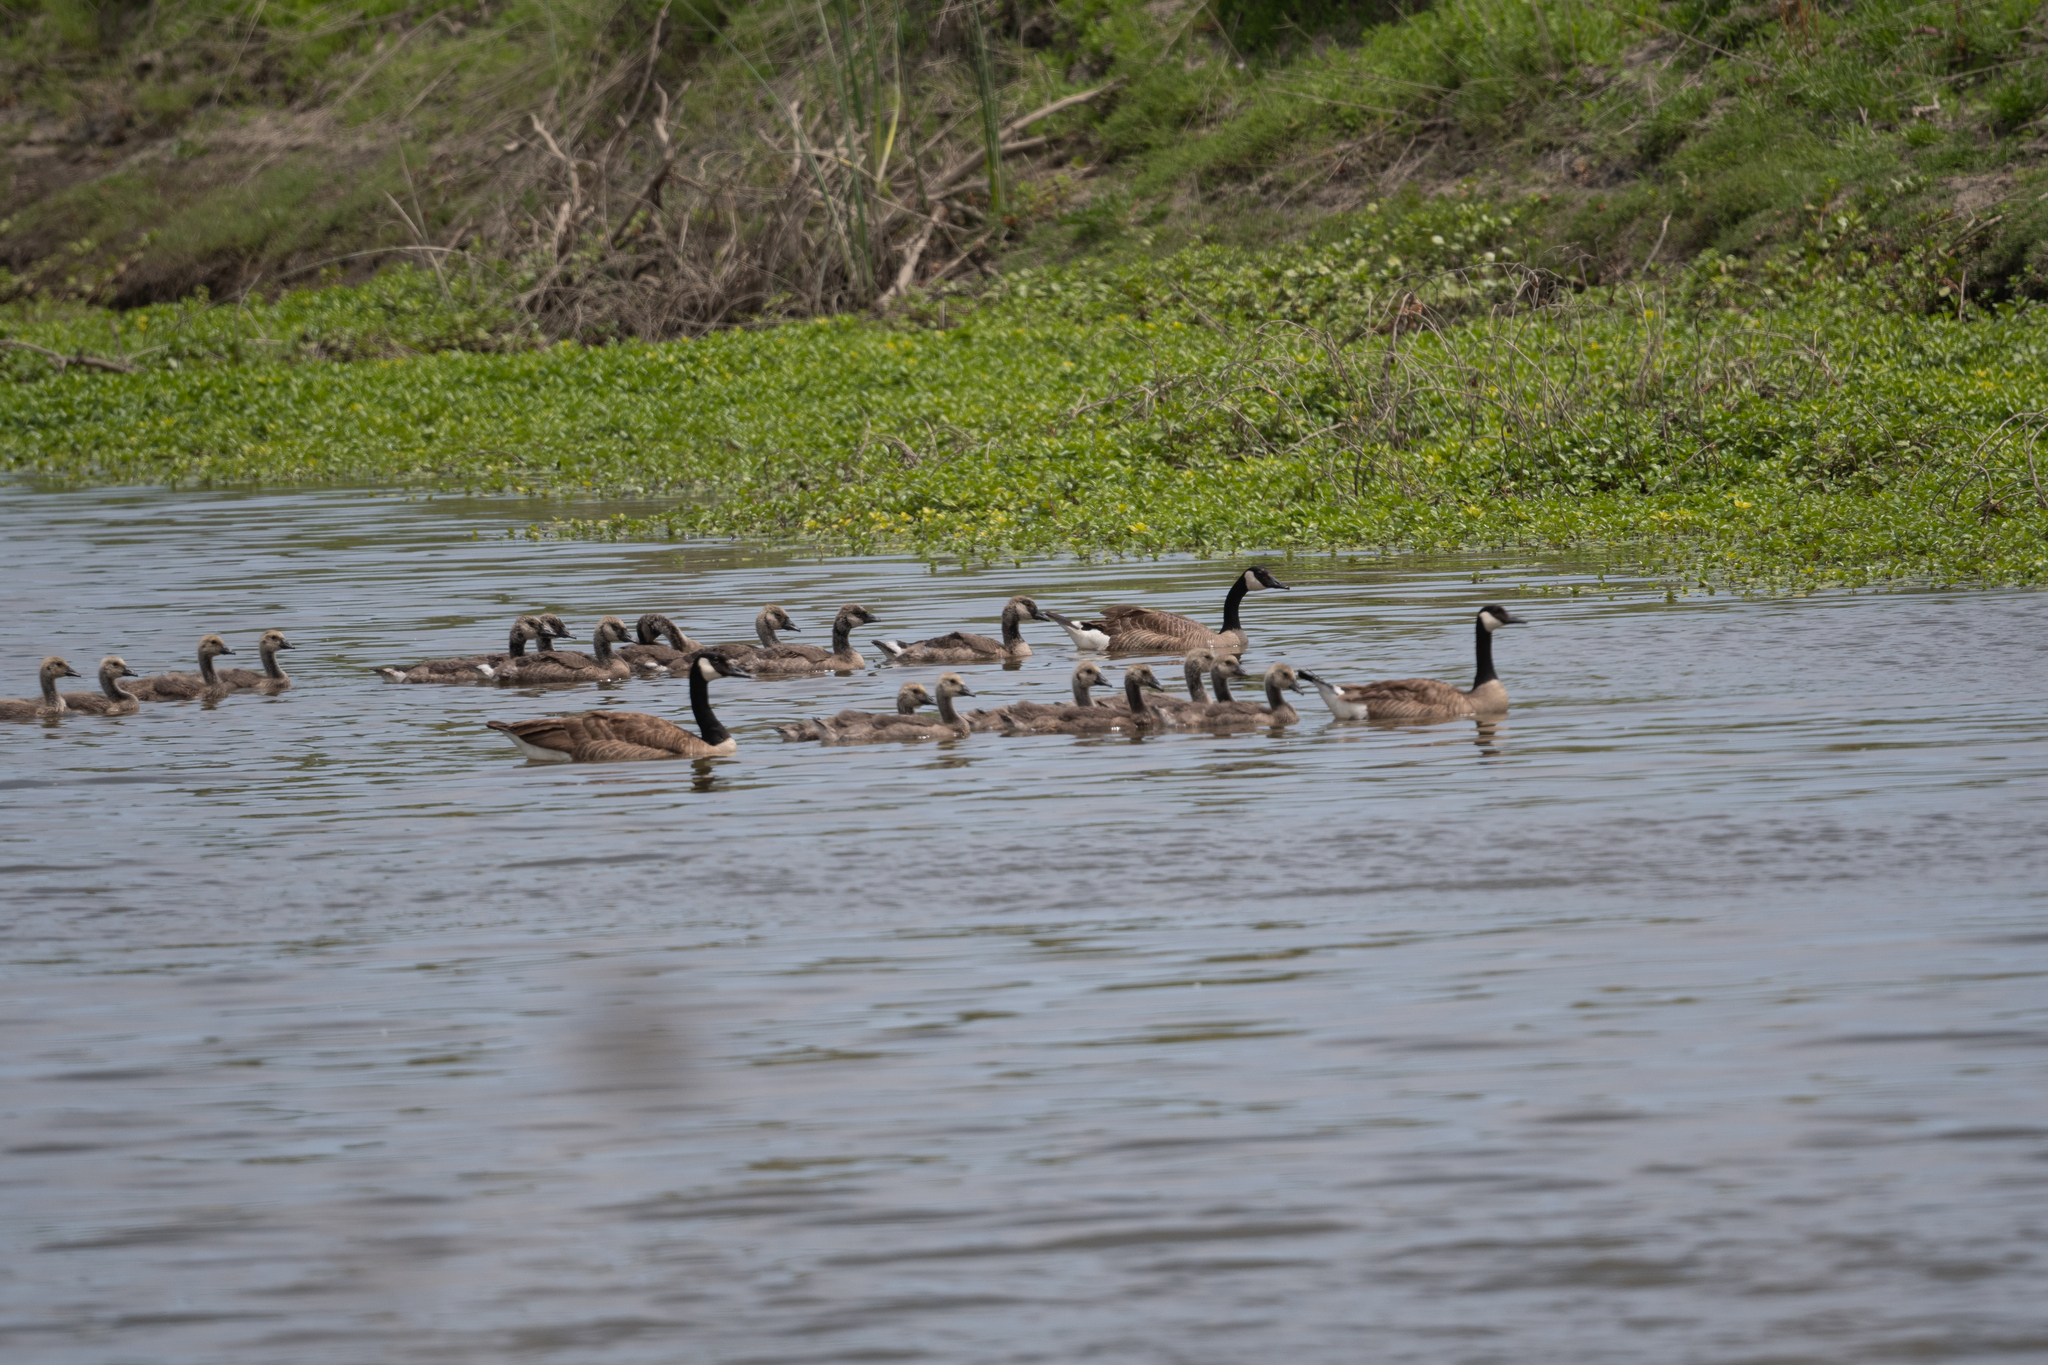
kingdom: Animalia
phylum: Chordata
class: Aves
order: Anseriformes
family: Anatidae
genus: Branta
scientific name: Branta canadensis
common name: Canada goose
